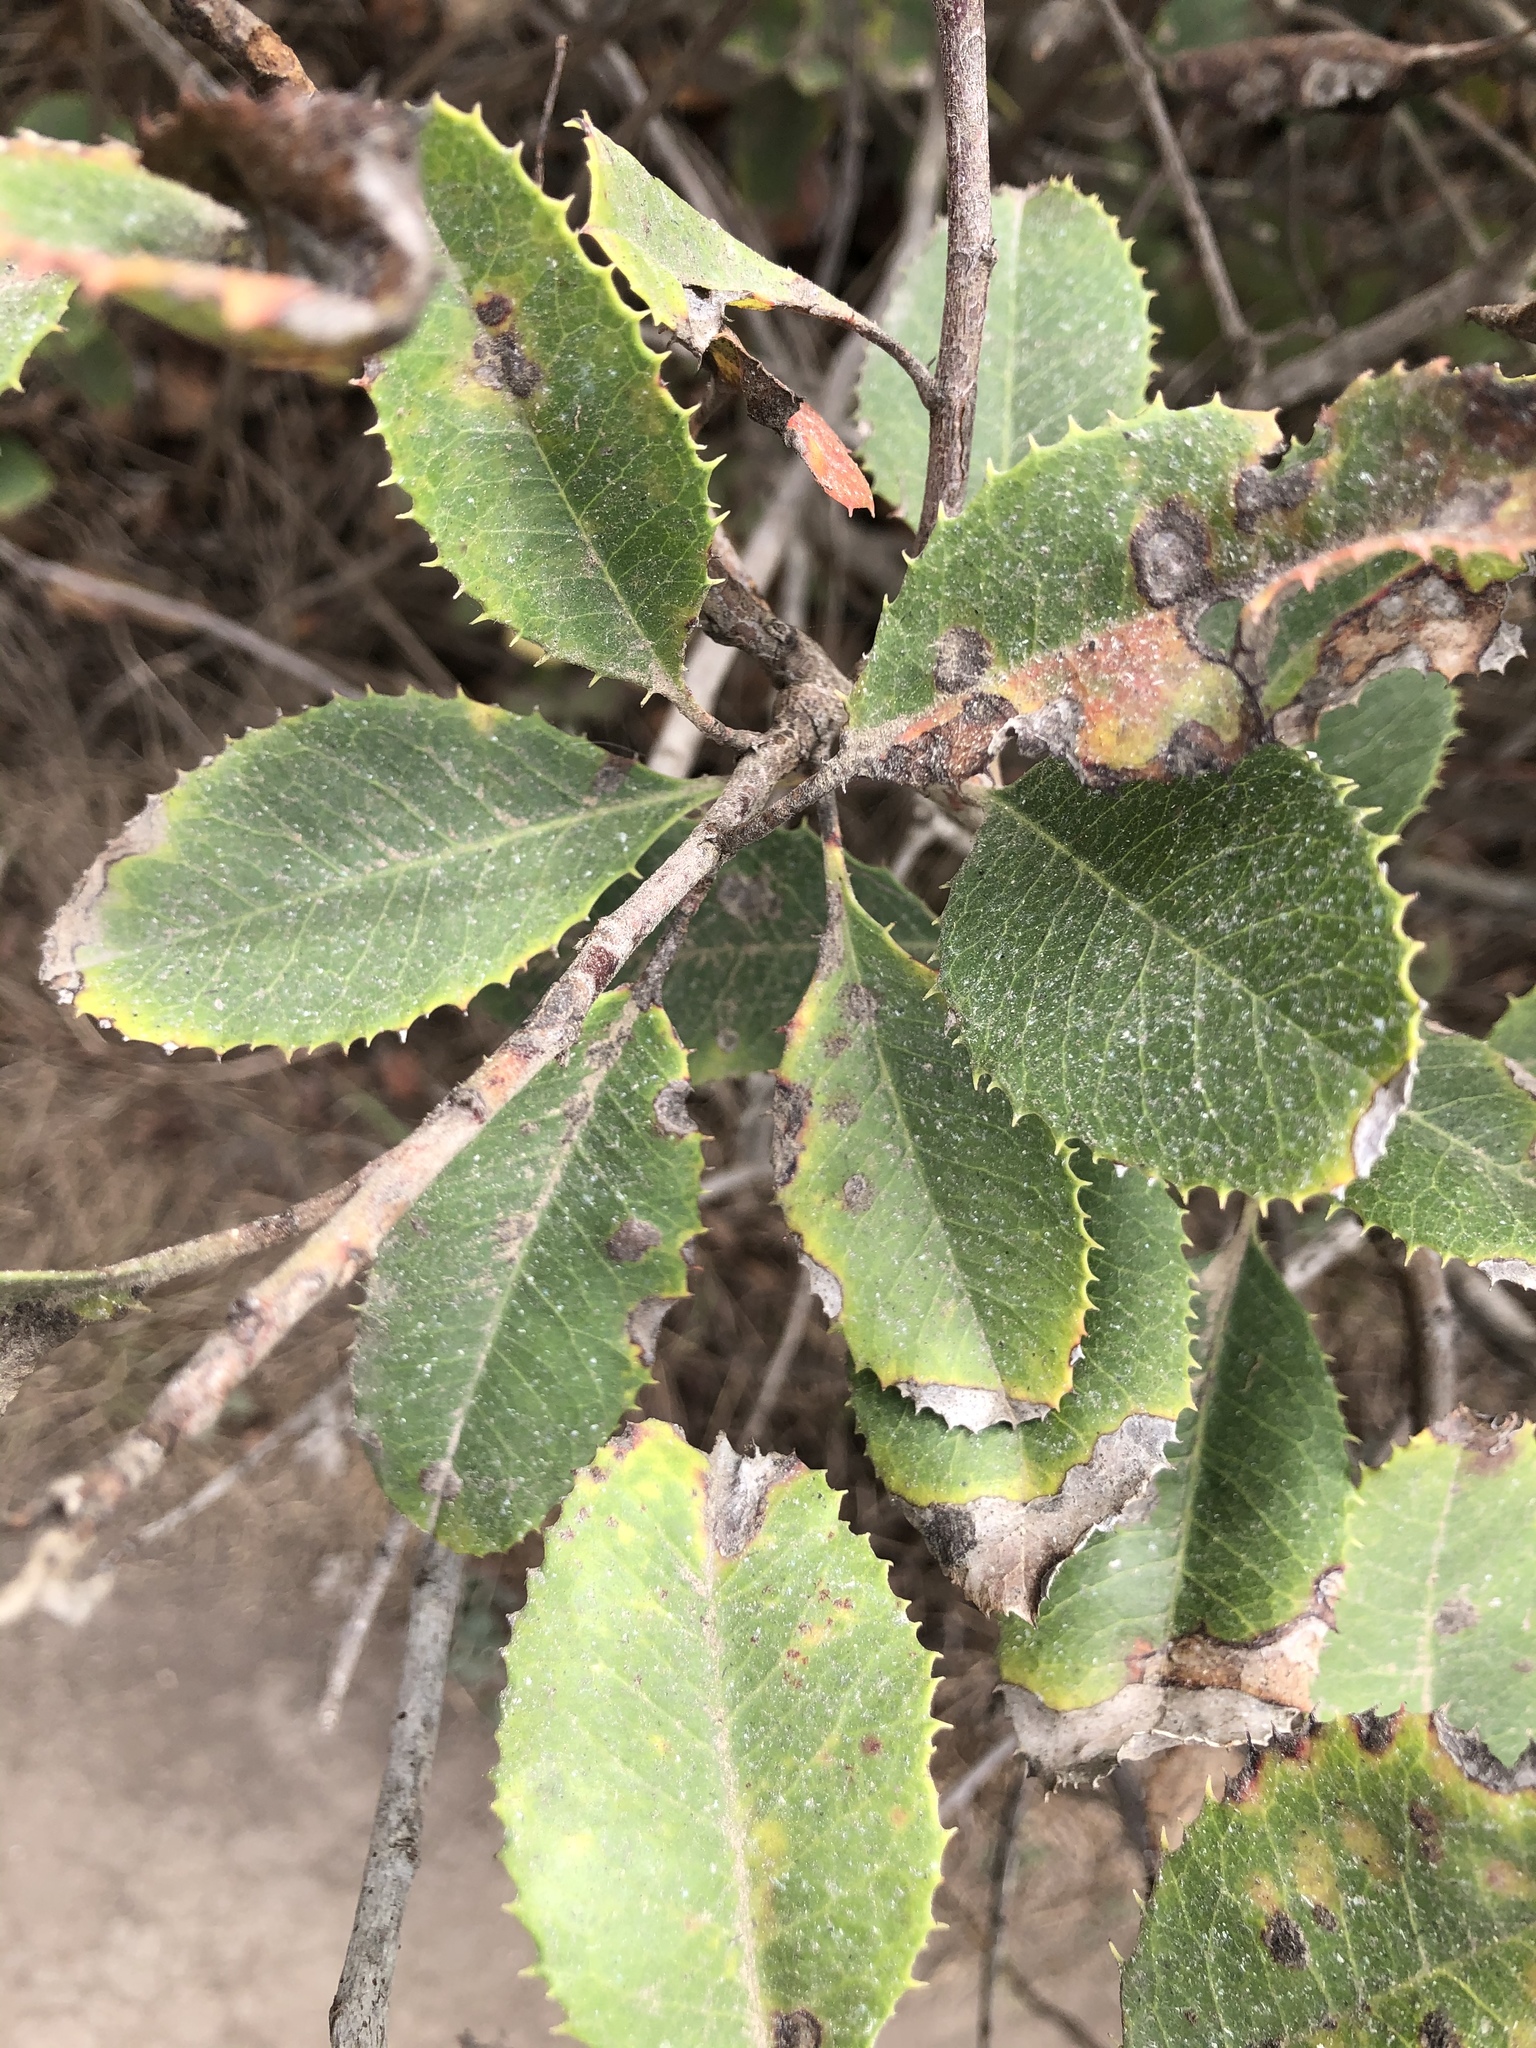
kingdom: Plantae
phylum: Tracheophyta
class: Magnoliopsida
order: Rosales
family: Rosaceae
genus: Heteromeles
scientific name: Heteromeles arbutifolia
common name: California-holly
